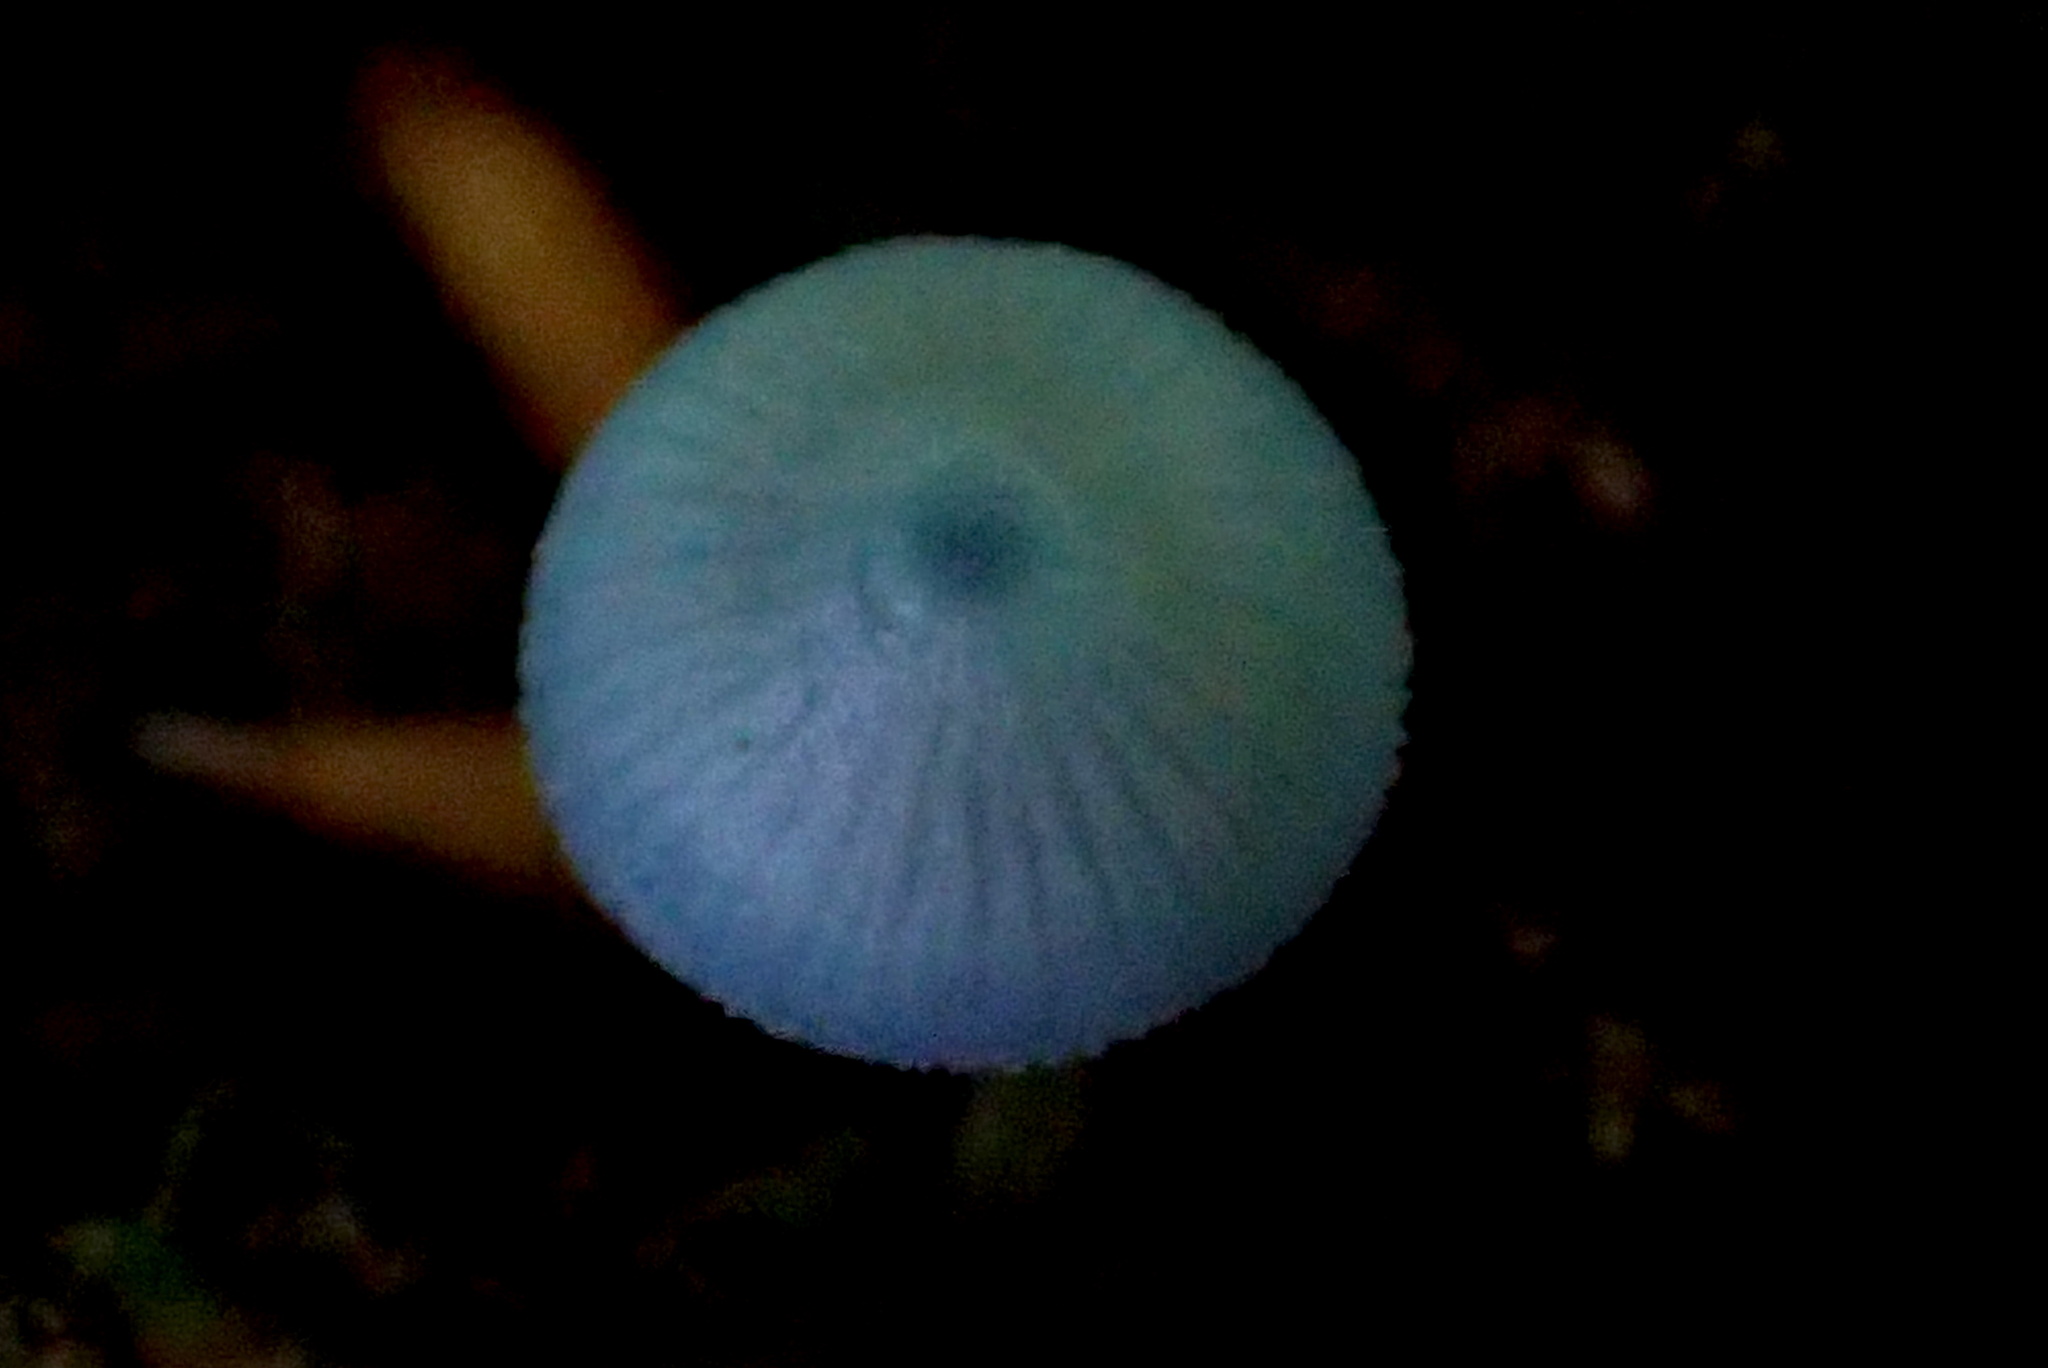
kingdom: Fungi
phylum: Basidiomycota
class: Agaricomycetes
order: Agaricales
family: Mycenaceae
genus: Mycena
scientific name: Mycena subcaerulea
